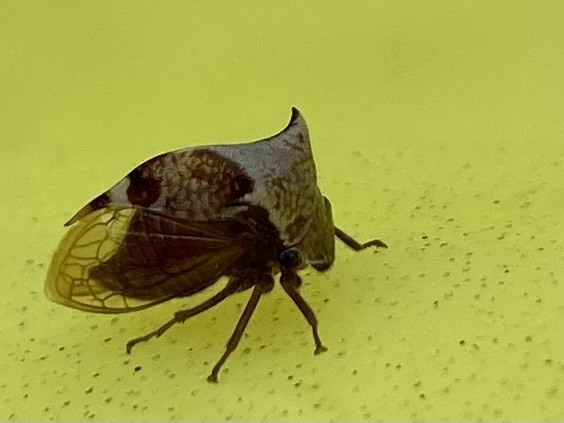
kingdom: Animalia
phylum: Arthropoda
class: Insecta
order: Hemiptera
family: Membracidae
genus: Stictocephala
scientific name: Stictocephala diceros
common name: Two-horned treehopper
